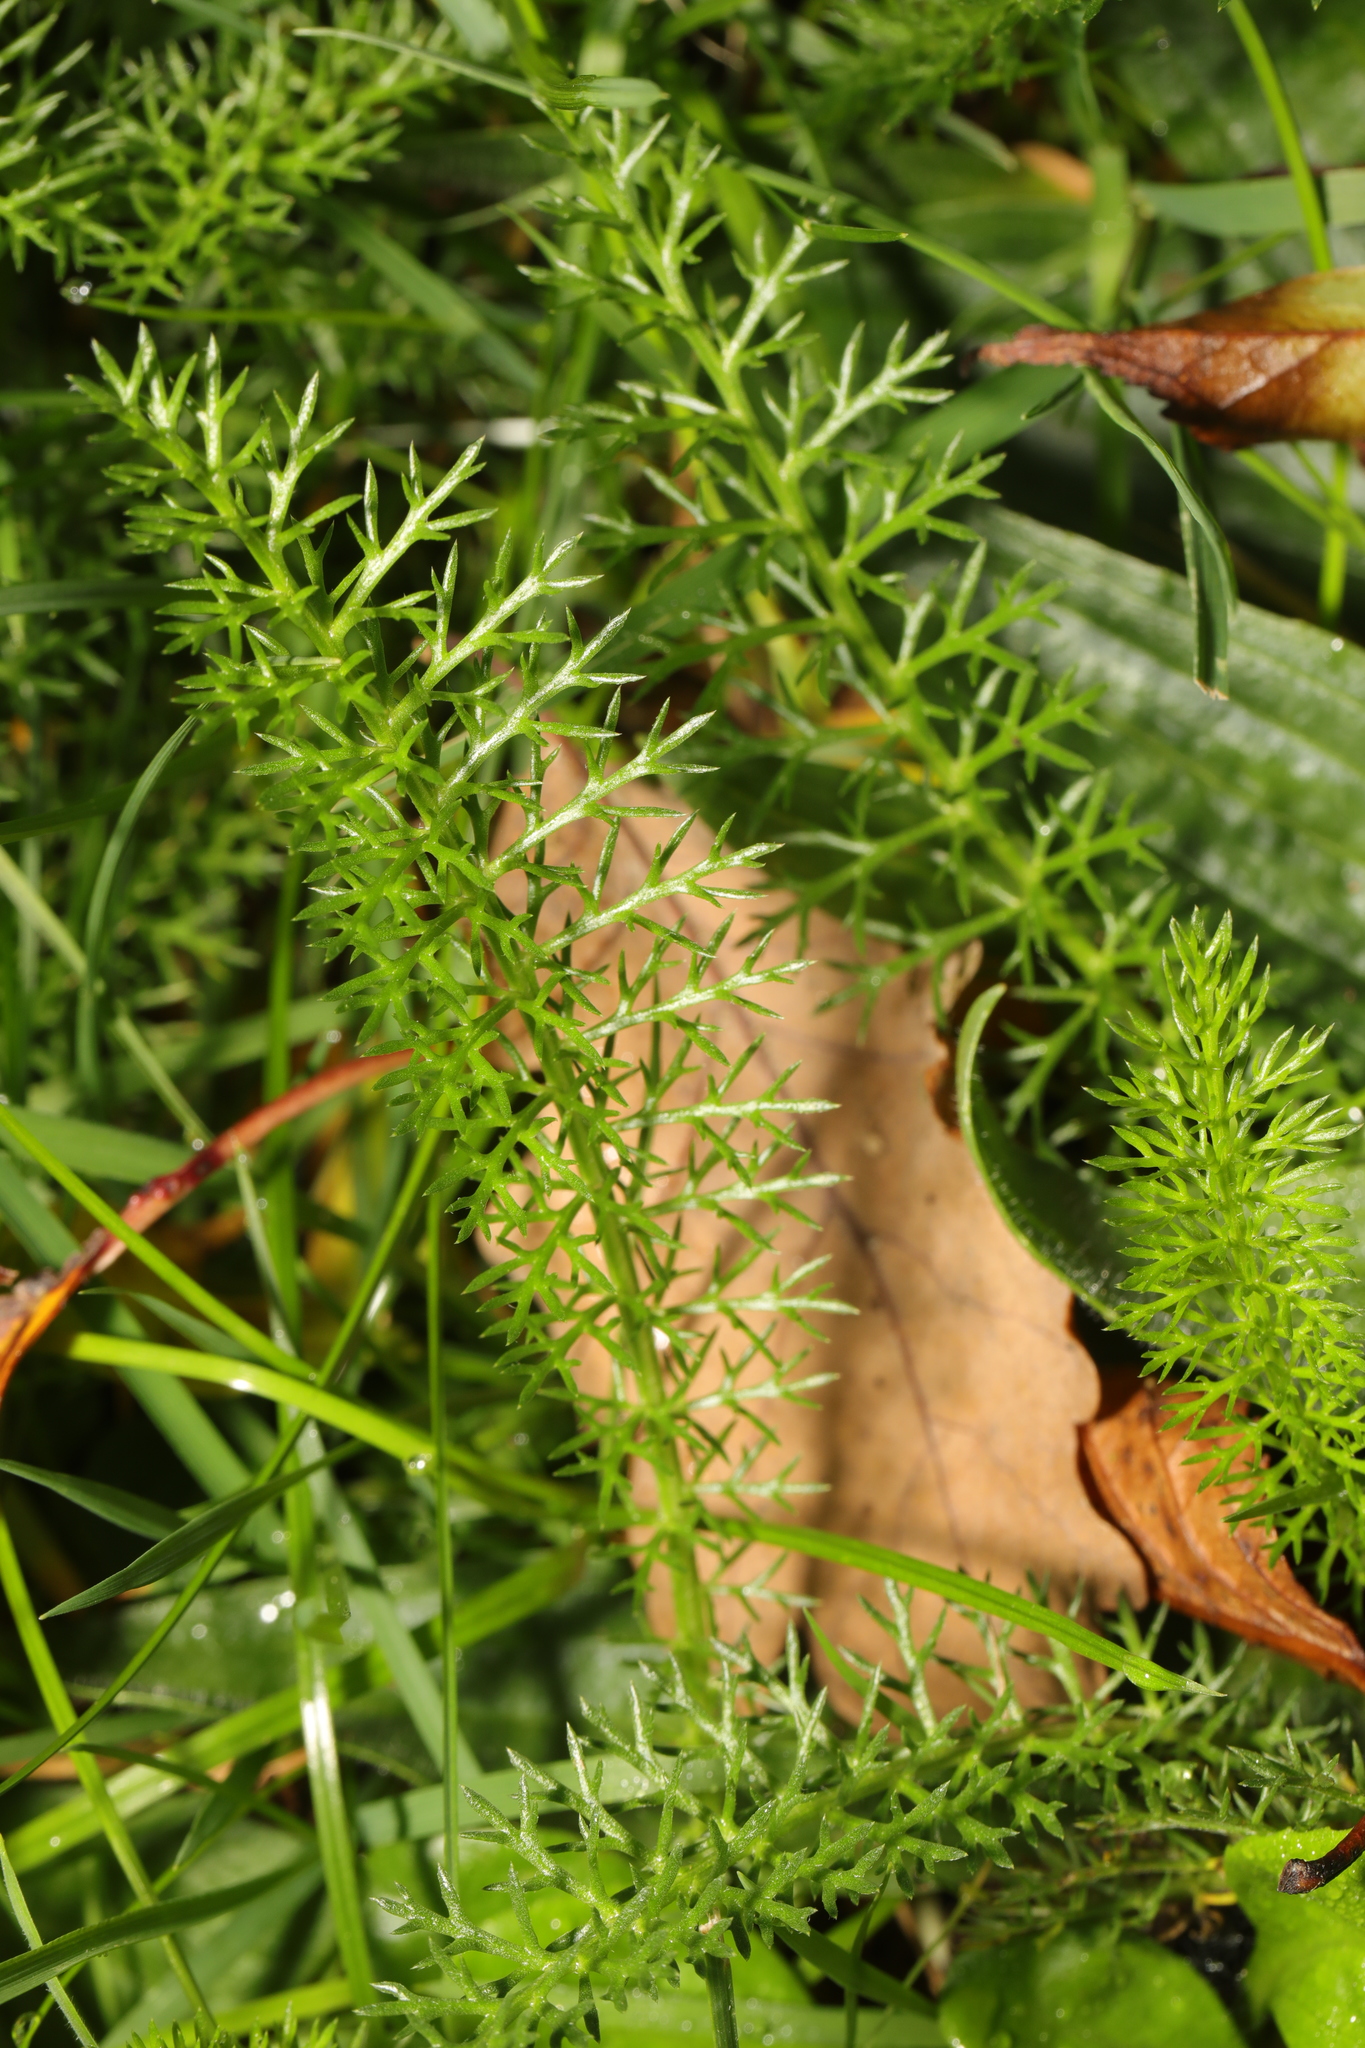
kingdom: Plantae
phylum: Tracheophyta
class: Magnoliopsida
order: Asterales
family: Asteraceae
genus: Achillea
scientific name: Achillea millefolium
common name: Yarrow
